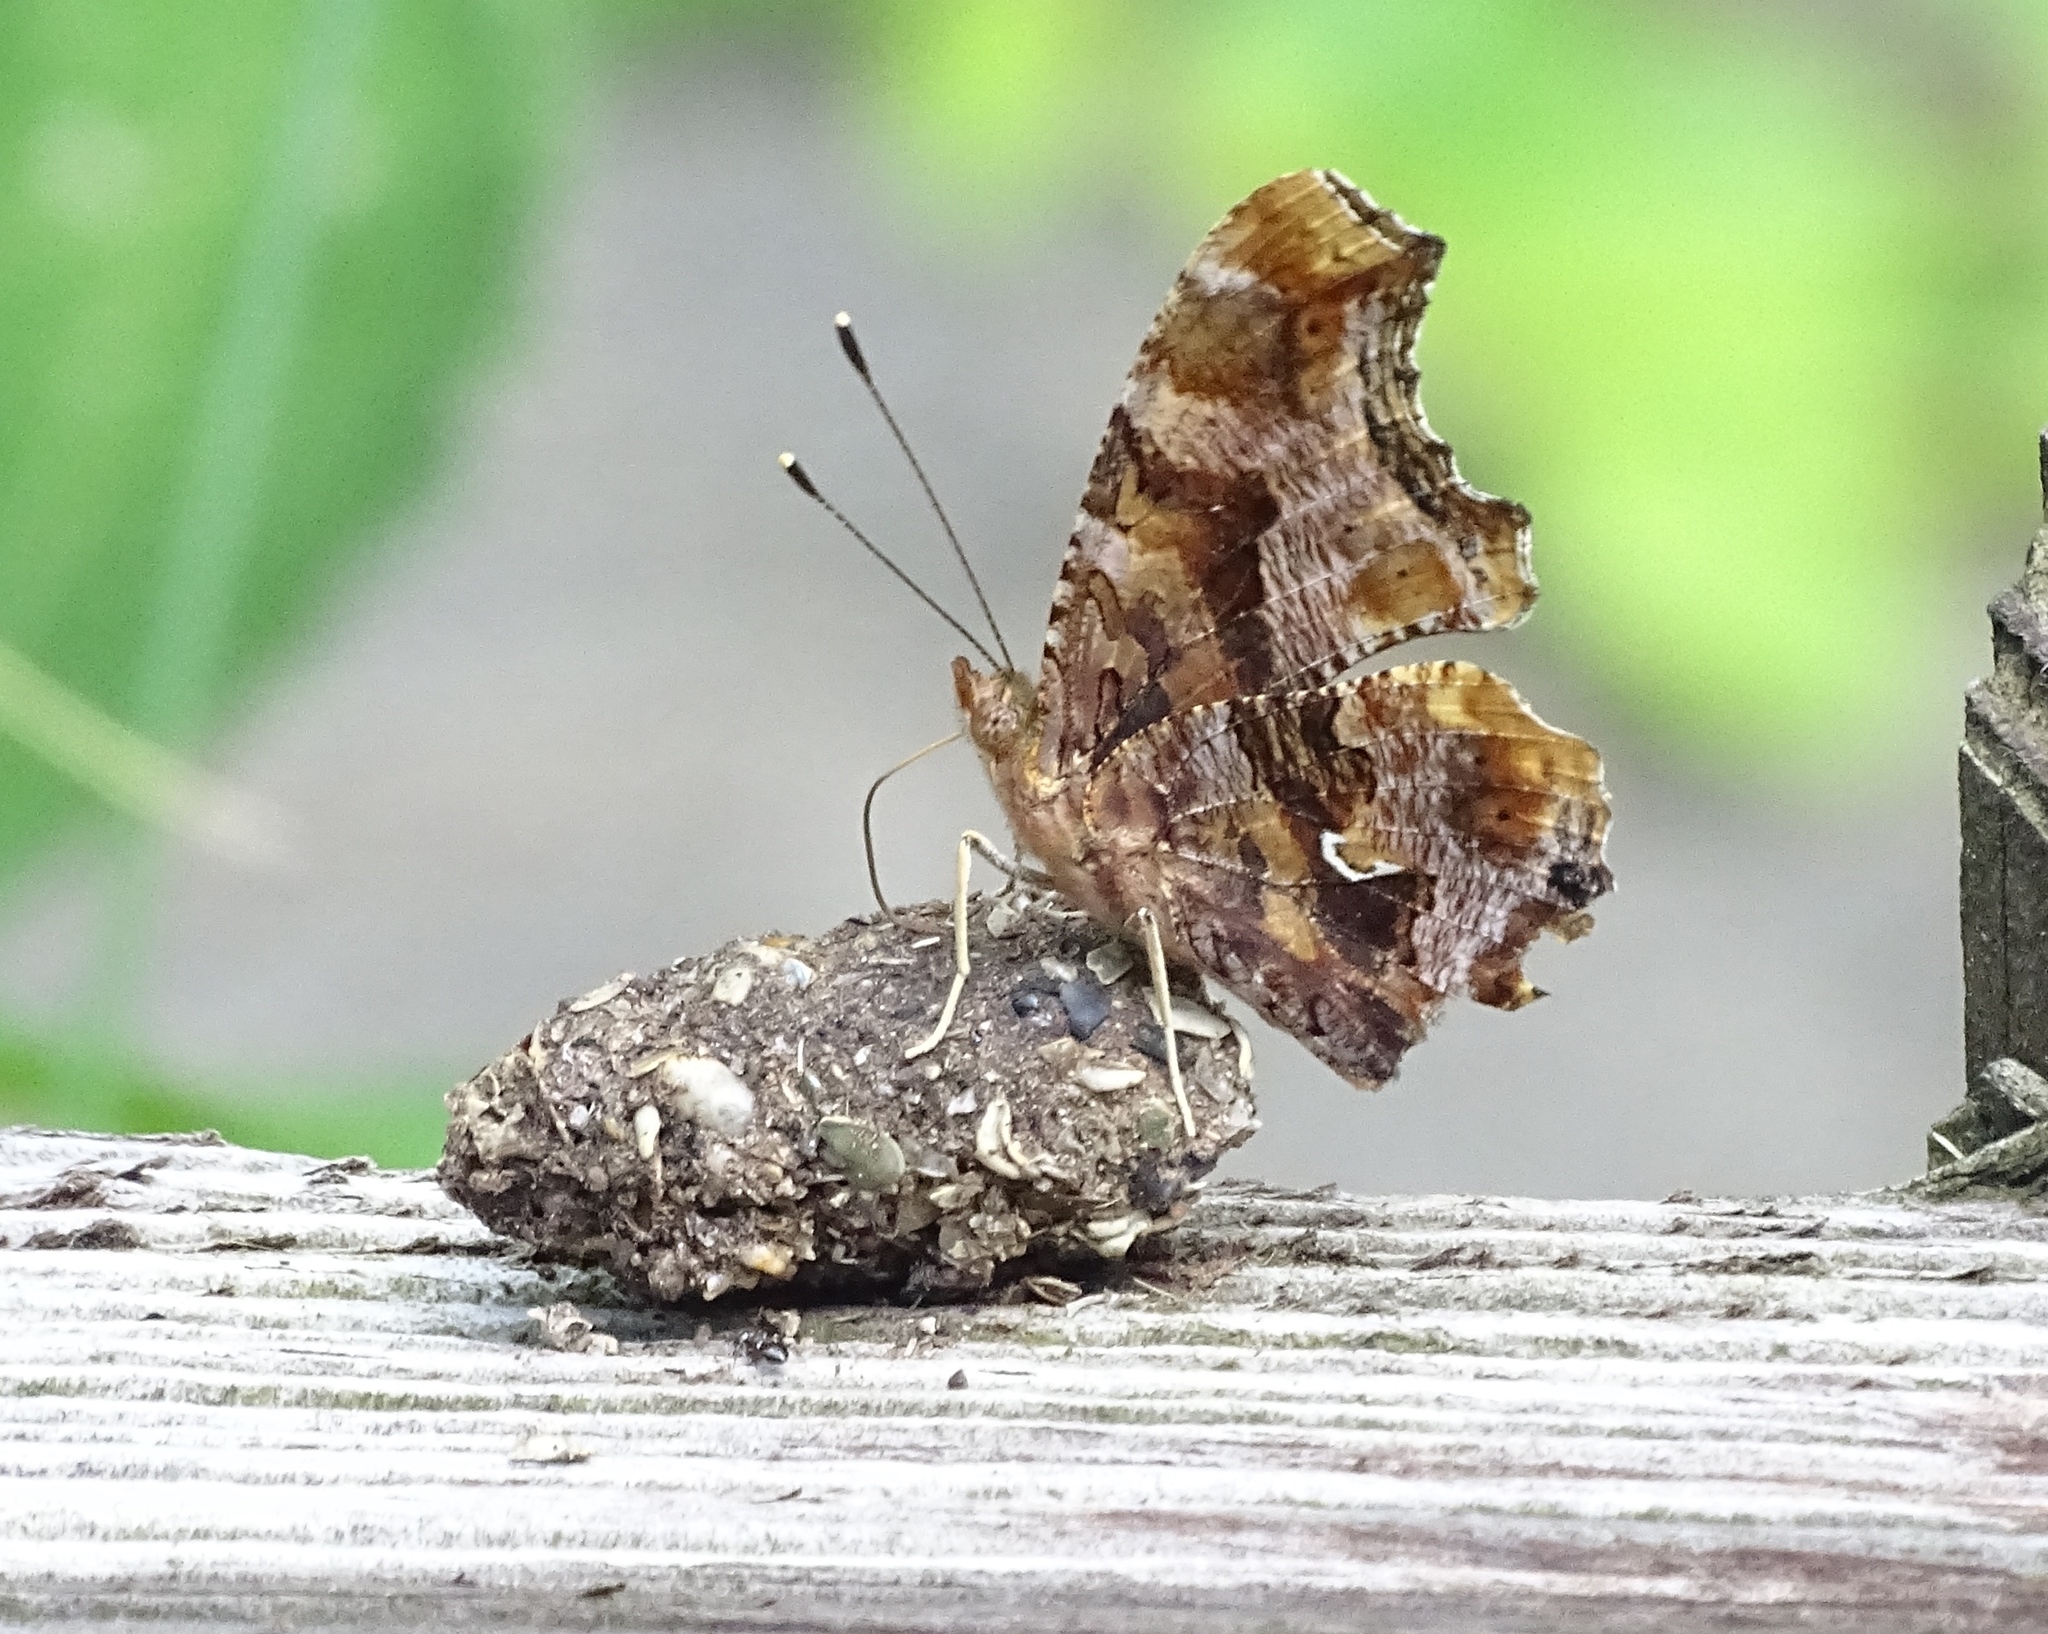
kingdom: Animalia
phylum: Arthropoda
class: Insecta
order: Lepidoptera
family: Nymphalidae
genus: Polygonia
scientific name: Polygonia comma
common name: Eastern comma
